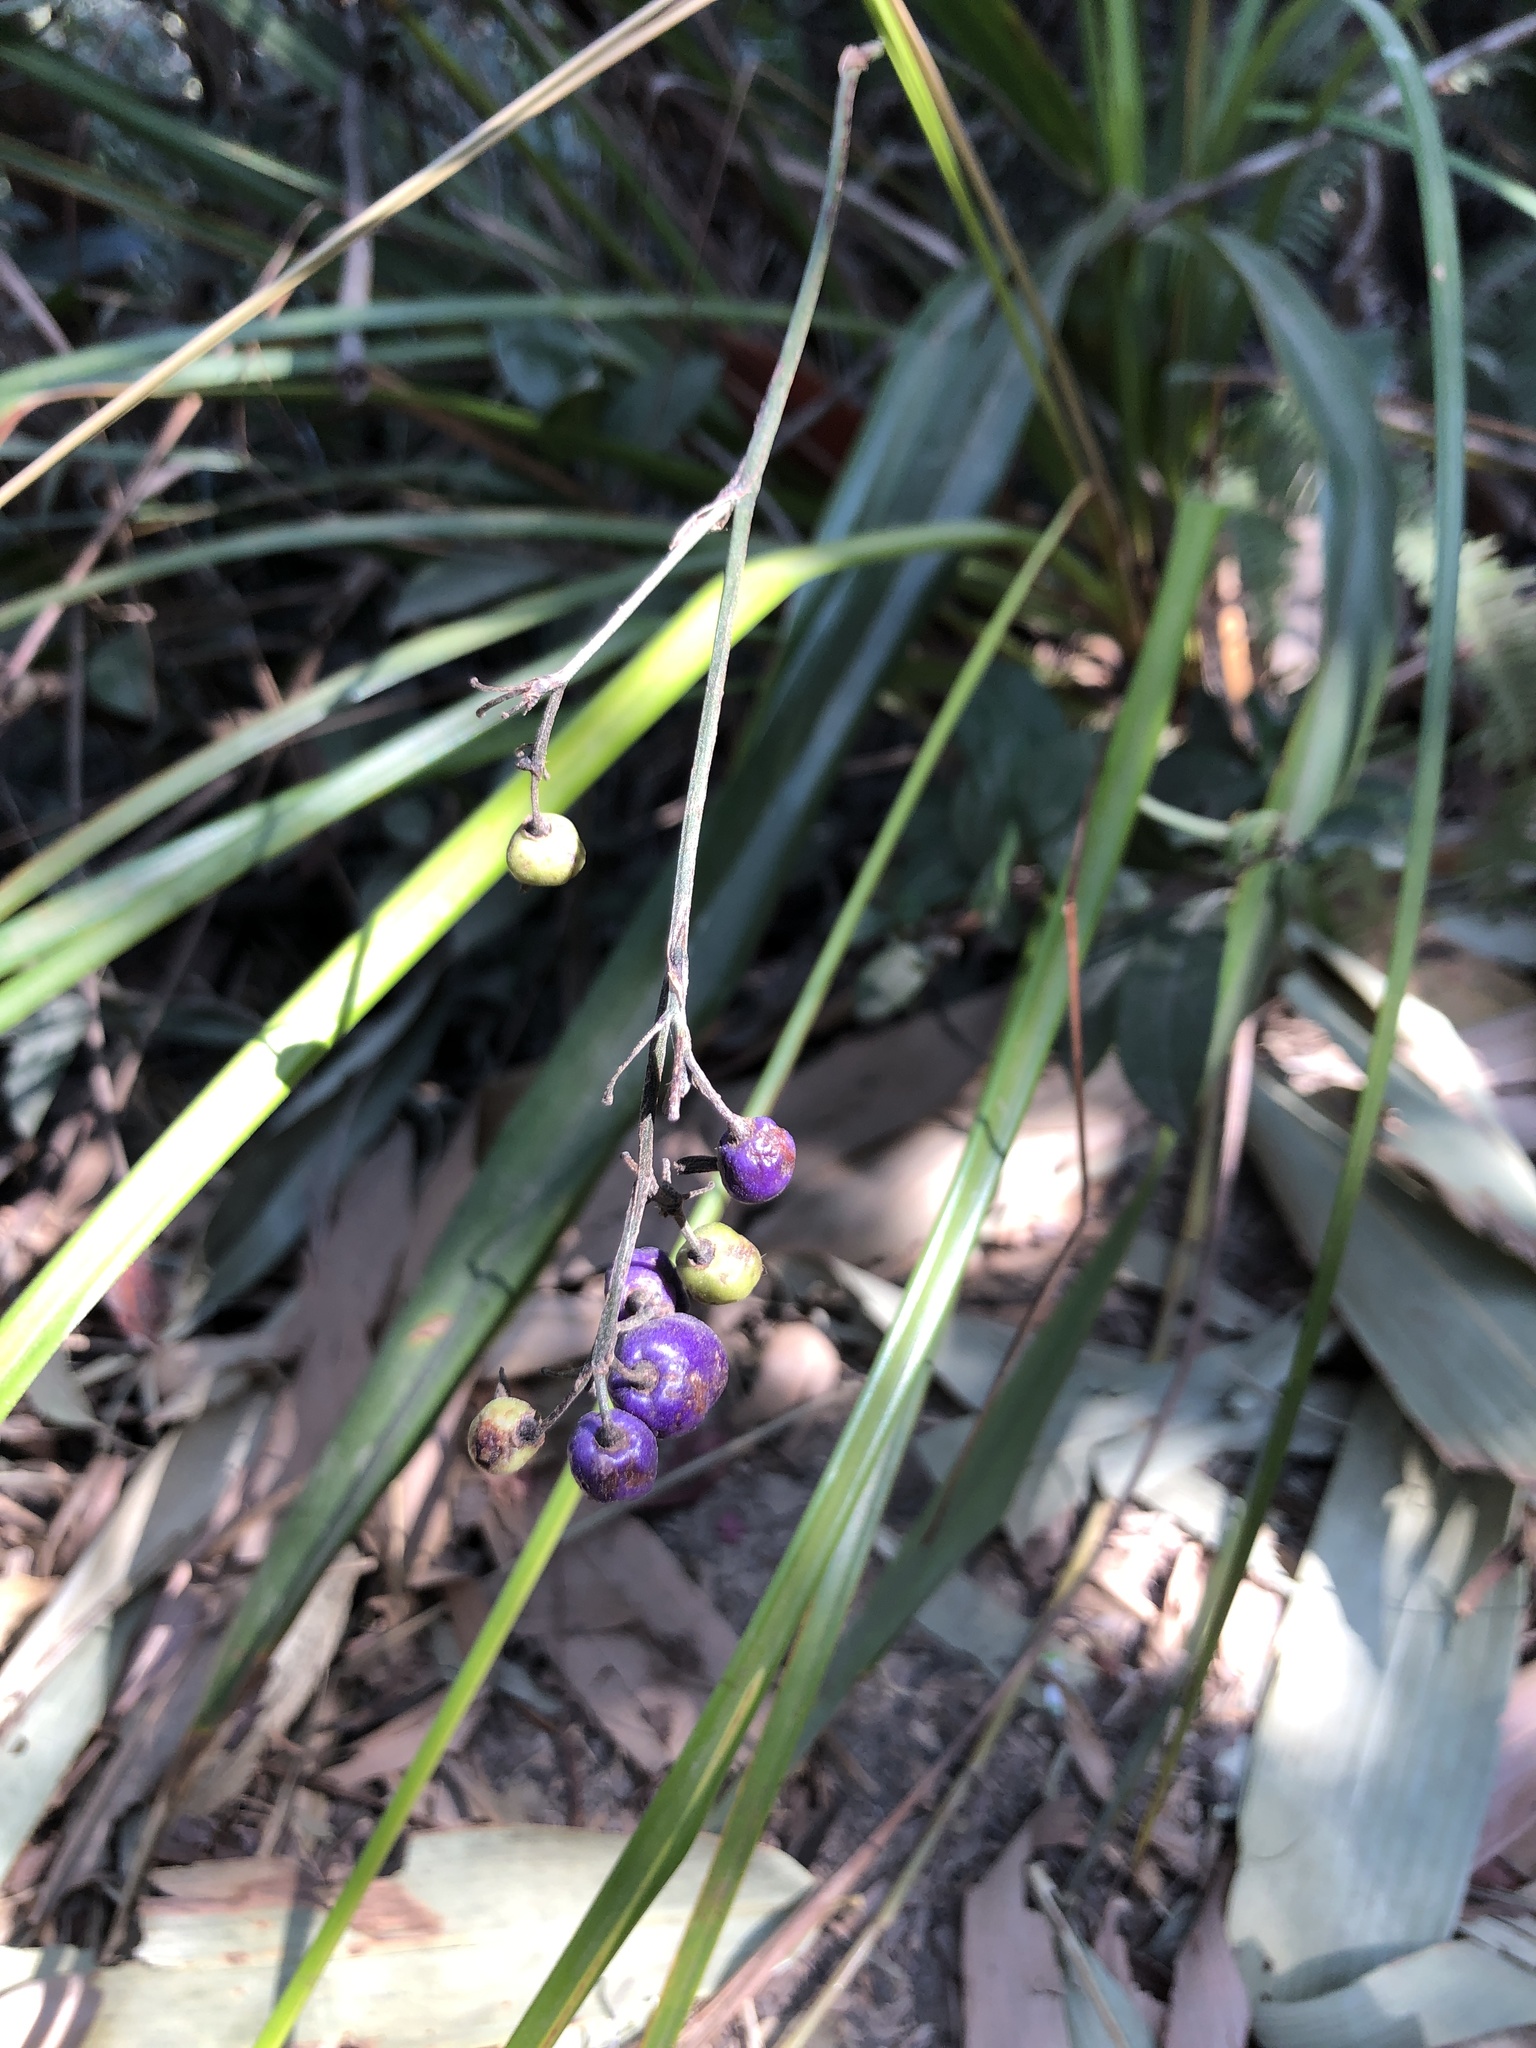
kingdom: Plantae
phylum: Tracheophyta
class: Liliopsida
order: Asparagales
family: Asphodelaceae
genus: Dianella
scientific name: Dianella ensifolia
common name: New zealand lilyplant
